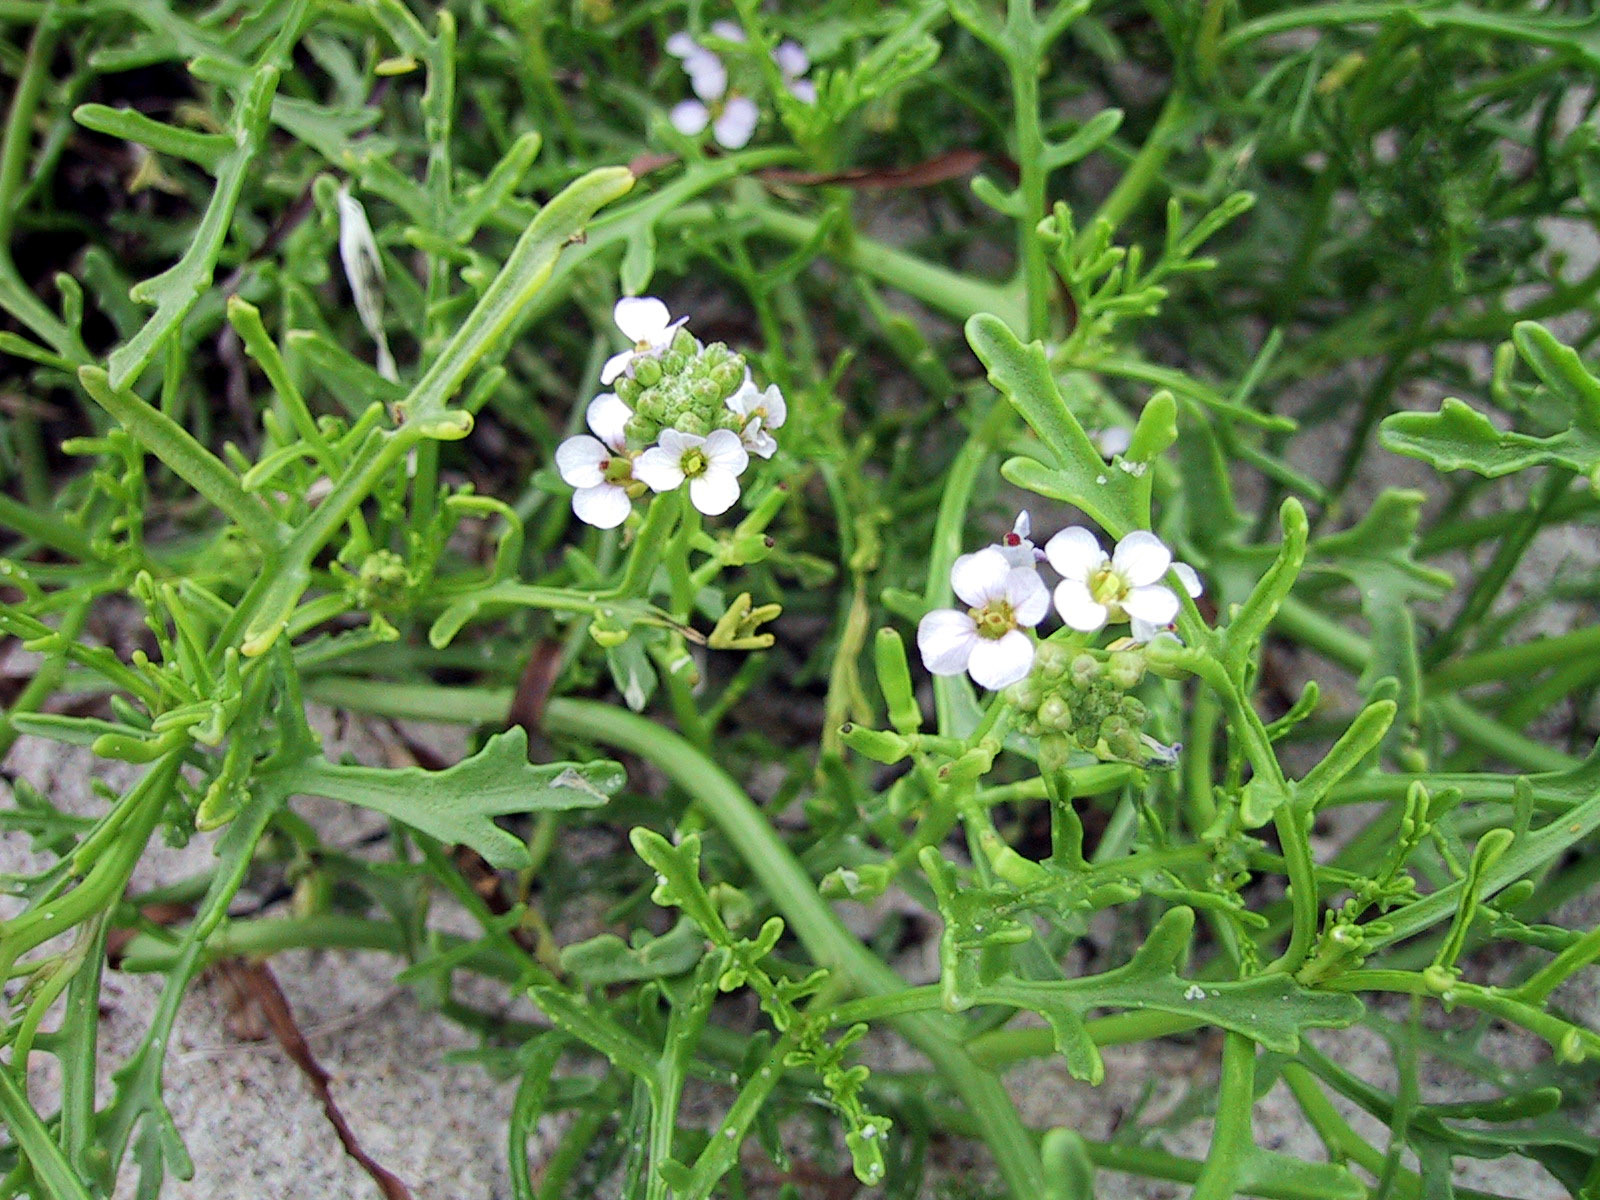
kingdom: Plantae
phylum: Tracheophyta
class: Magnoliopsida
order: Brassicales
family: Brassicaceae
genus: Cakile
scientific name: Cakile maritima
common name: Sea rocket
